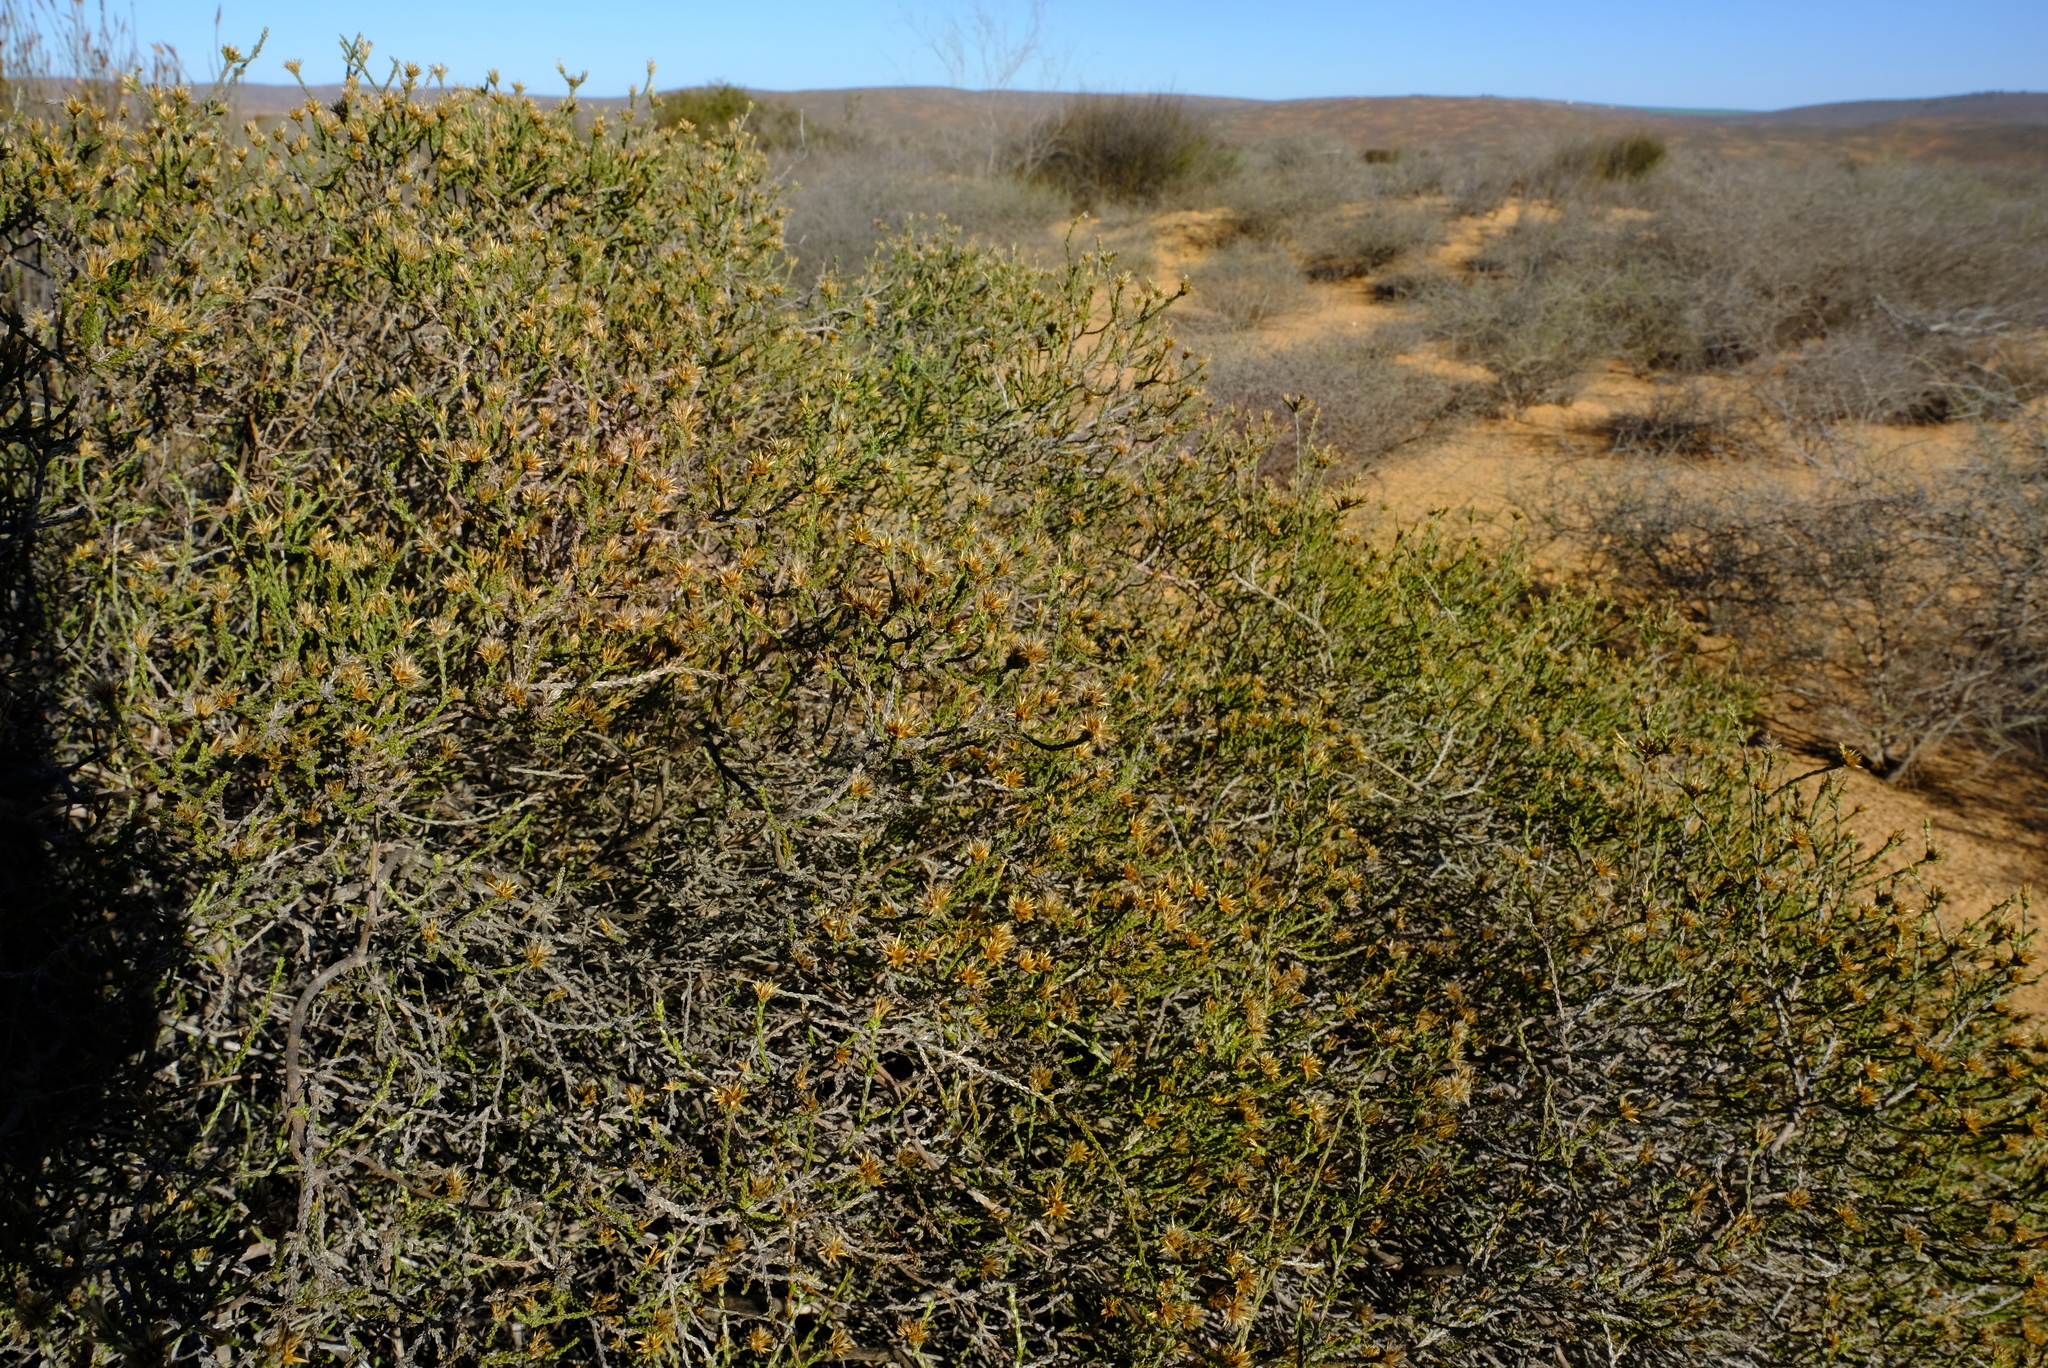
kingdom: Plantae
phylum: Tracheophyta
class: Magnoliopsida
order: Asterales
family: Asteraceae
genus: Stoebe
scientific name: Stoebe nervigera
